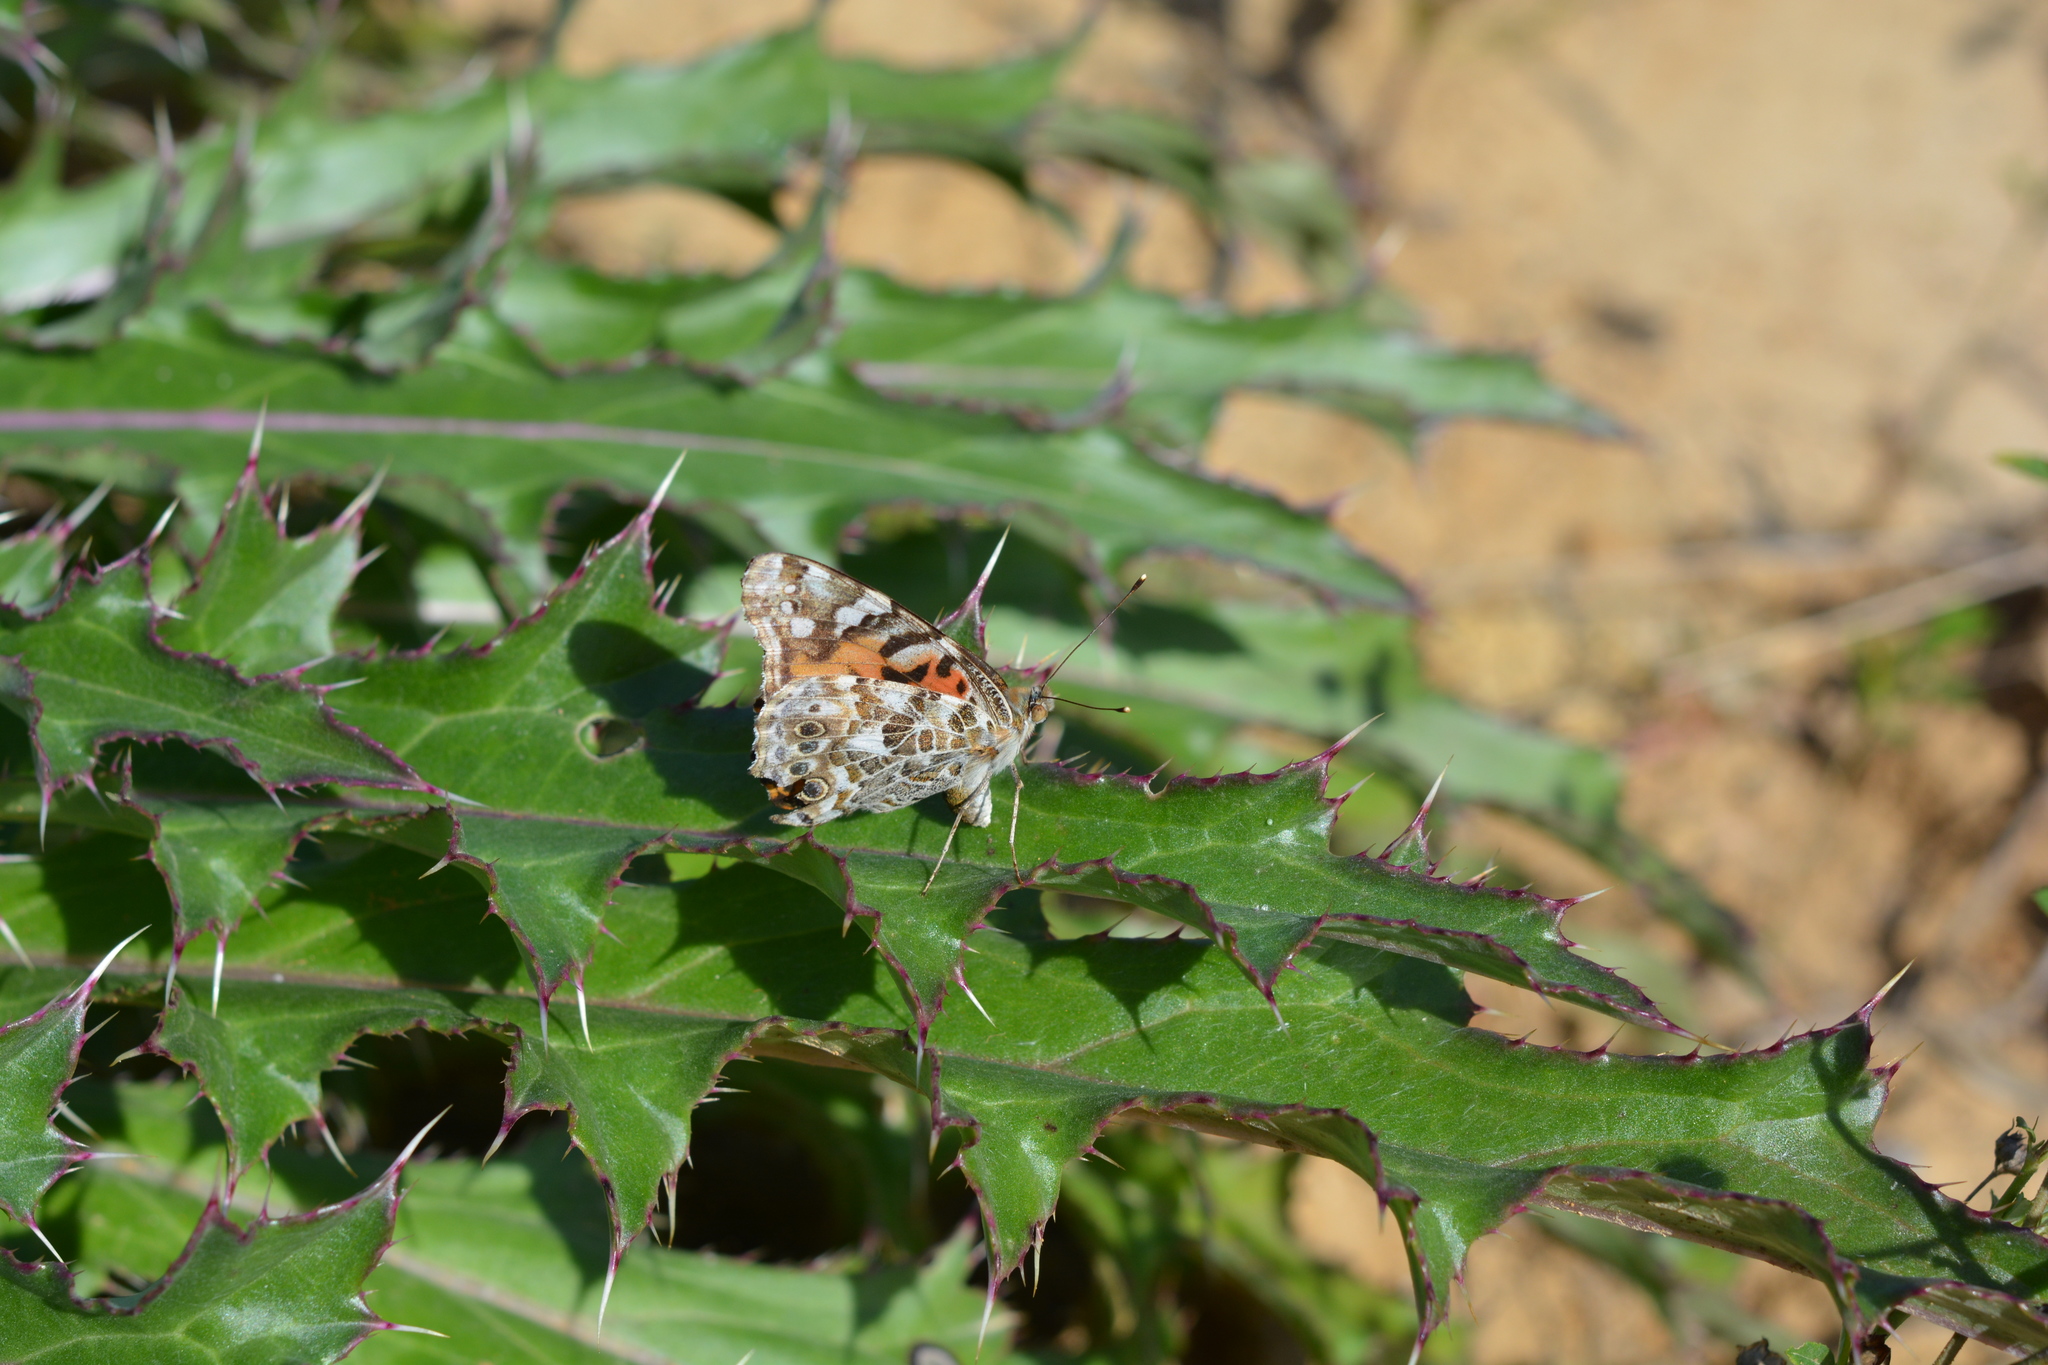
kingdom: Animalia
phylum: Arthropoda
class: Insecta
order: Lepidoptera
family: Nymphalidae
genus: Vanessa
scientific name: Vanessa cardui
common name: Painted lady
